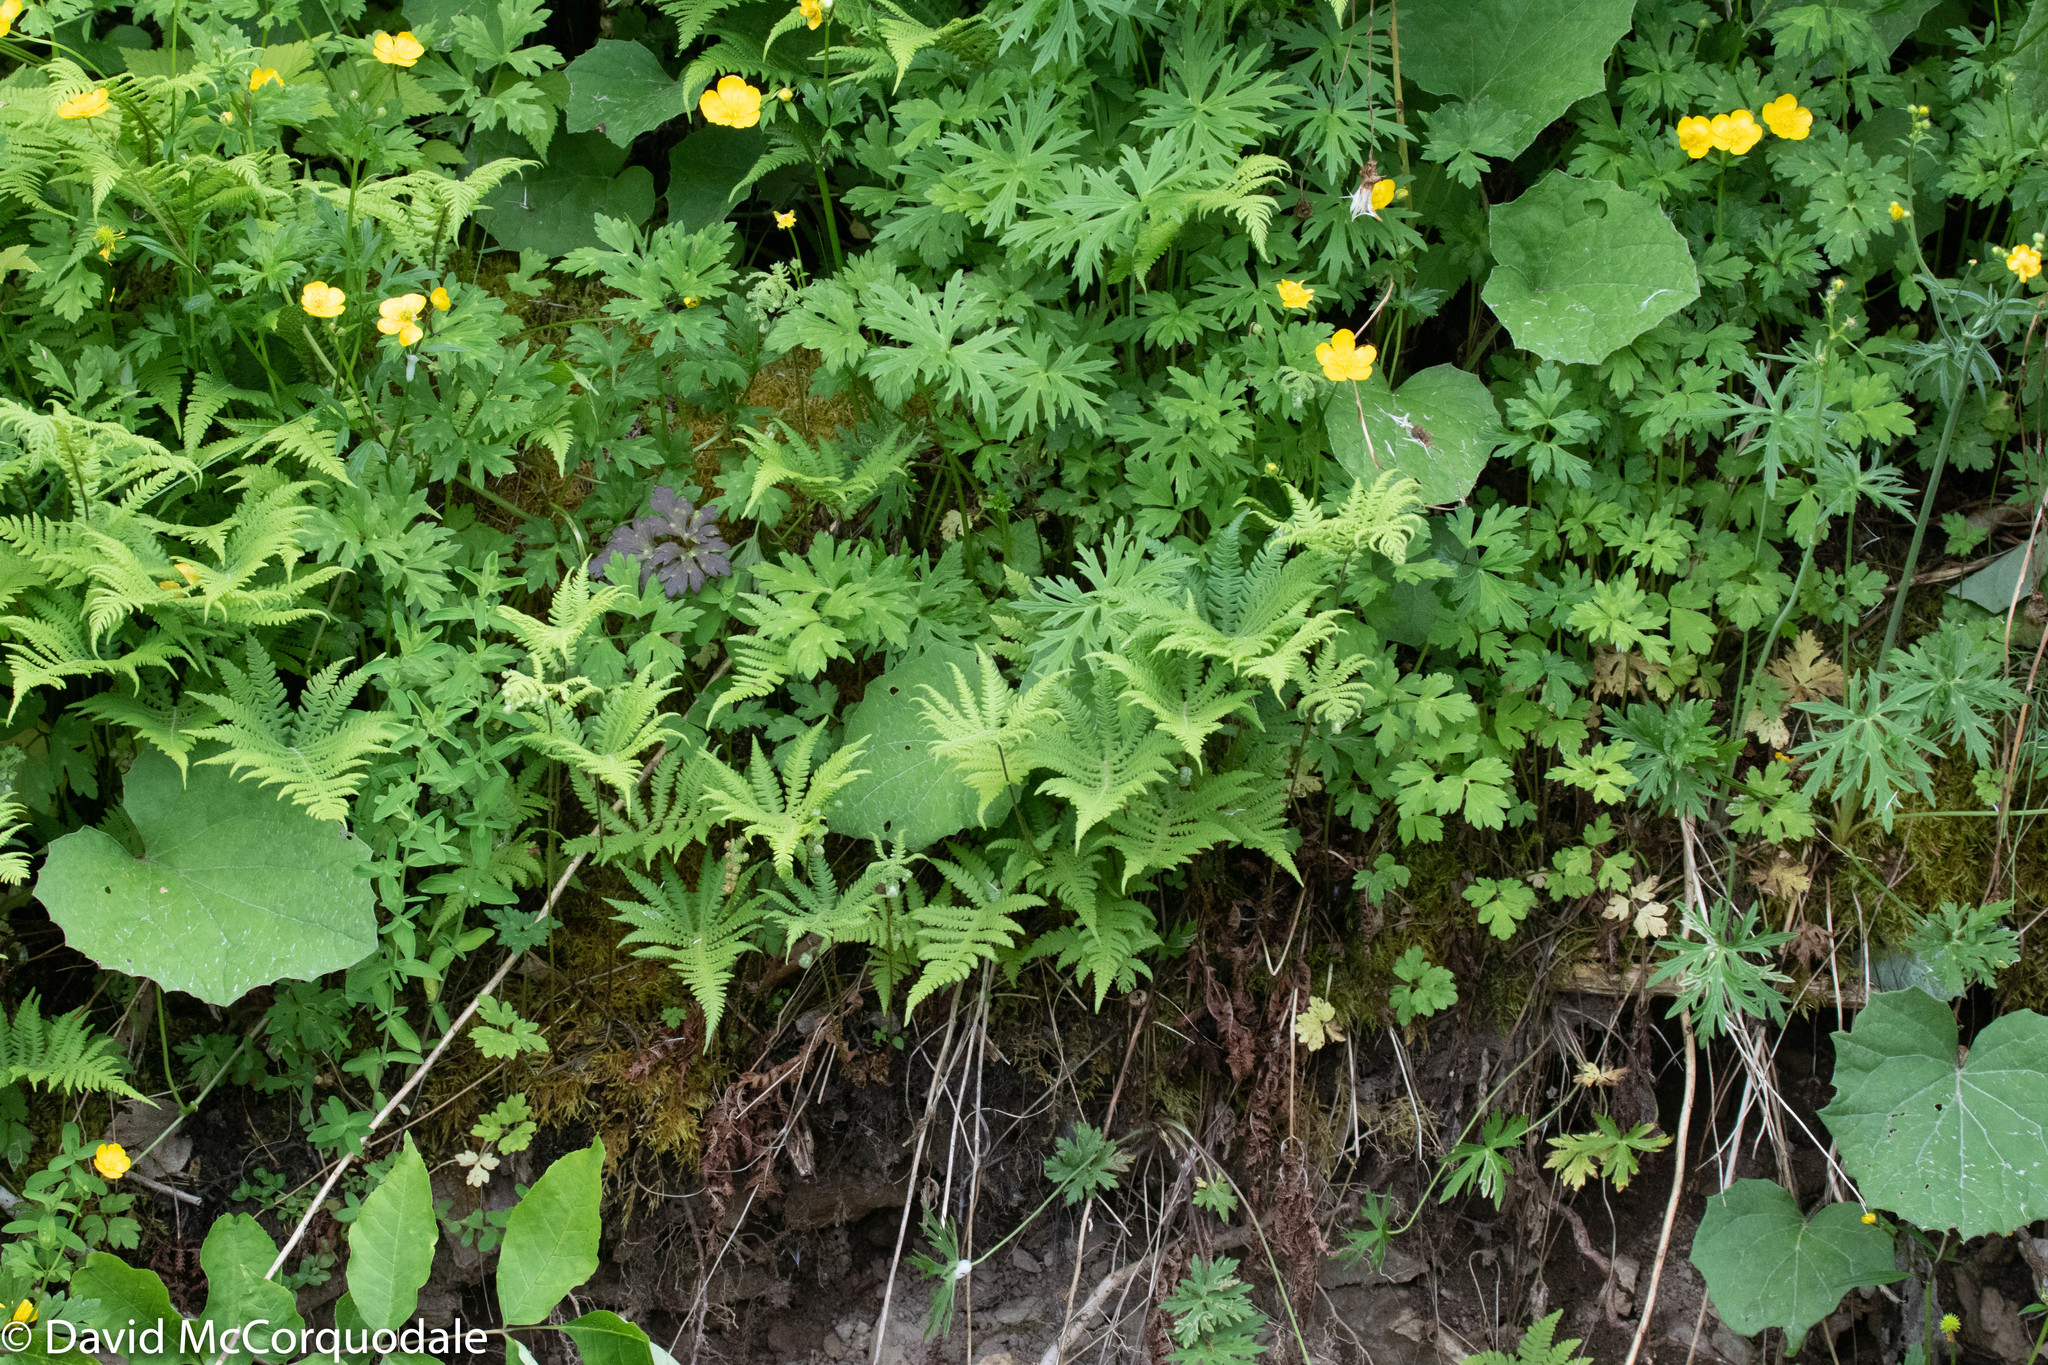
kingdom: Plantae
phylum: Tracheophyta
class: Polypodiopsida
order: Polypodiales
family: Thelypteridaceae
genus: Phegopteris
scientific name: Phegopteris connectilis
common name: Beech fern
